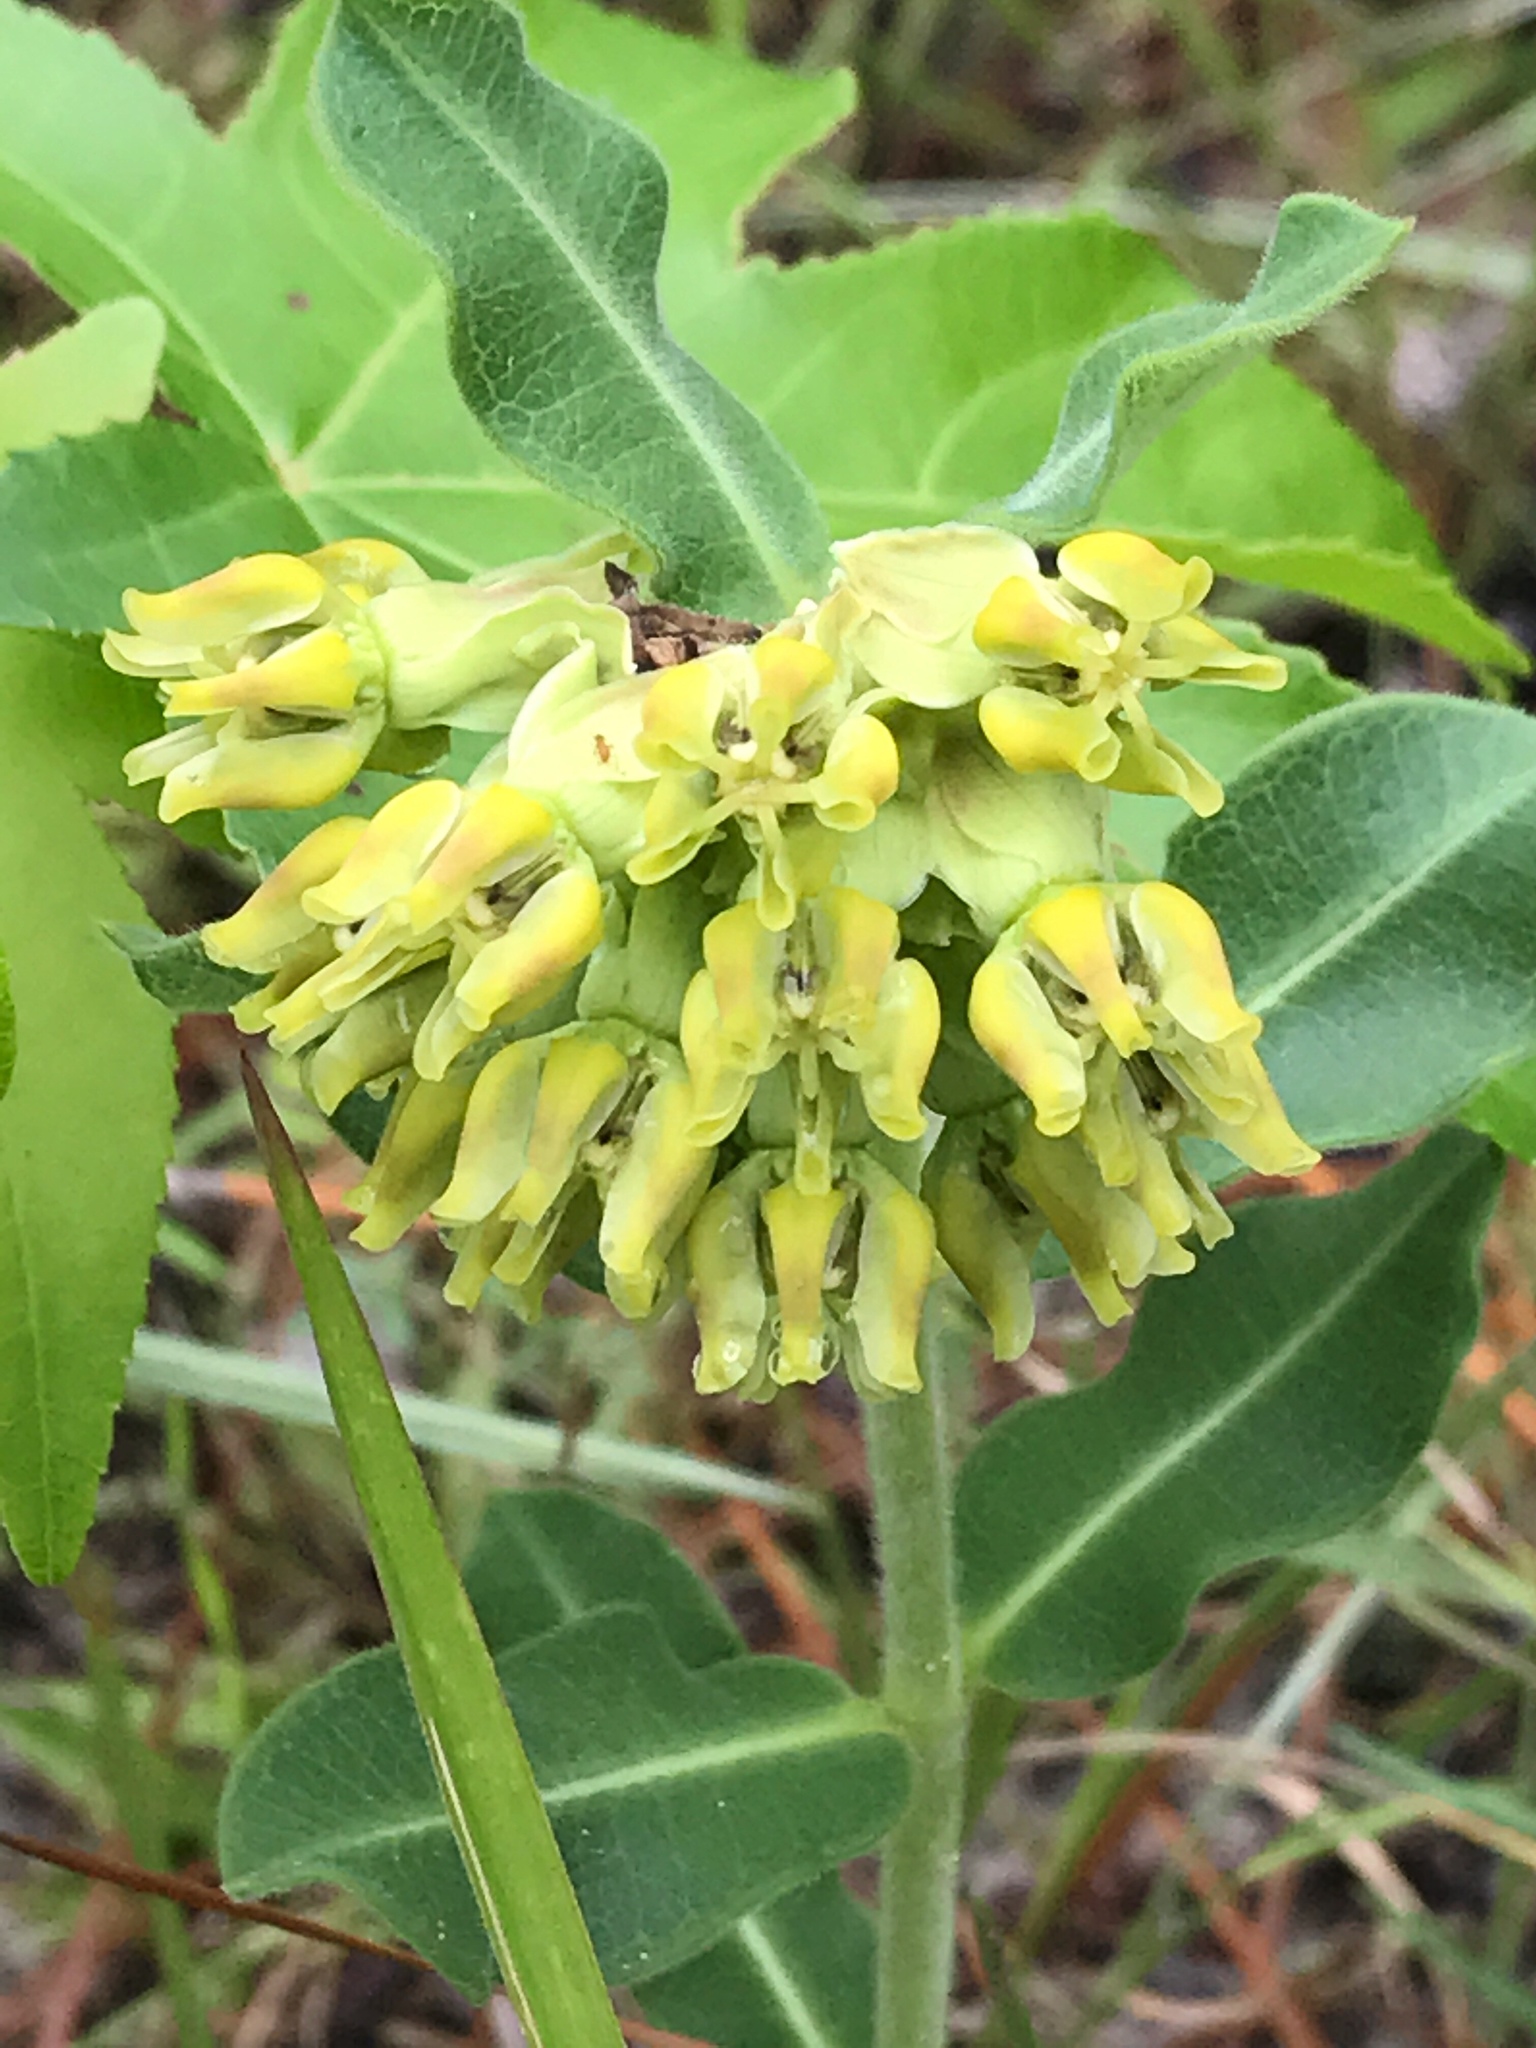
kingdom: Plantae
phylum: Tracheophyta
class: Magnoliopsida
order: Gentianales
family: Apocynaceae
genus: Asclepias
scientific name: Asclepias obovata
